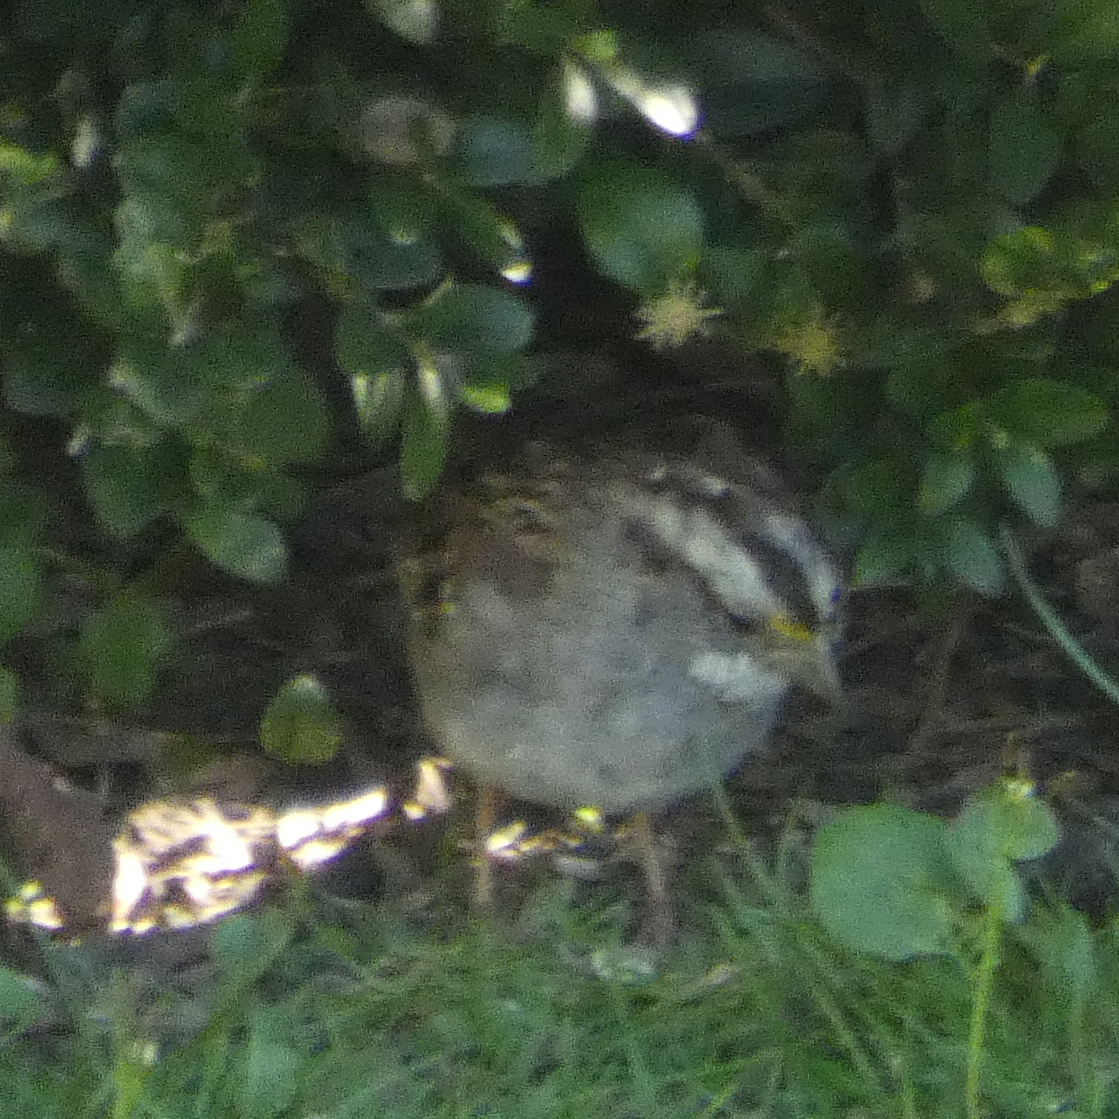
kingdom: Animalia
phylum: Chordata
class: Aves
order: Passeriformes
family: Passerellidae
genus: Zonotrichia
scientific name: Zonotrichia albicollis
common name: White-throated sparrow
